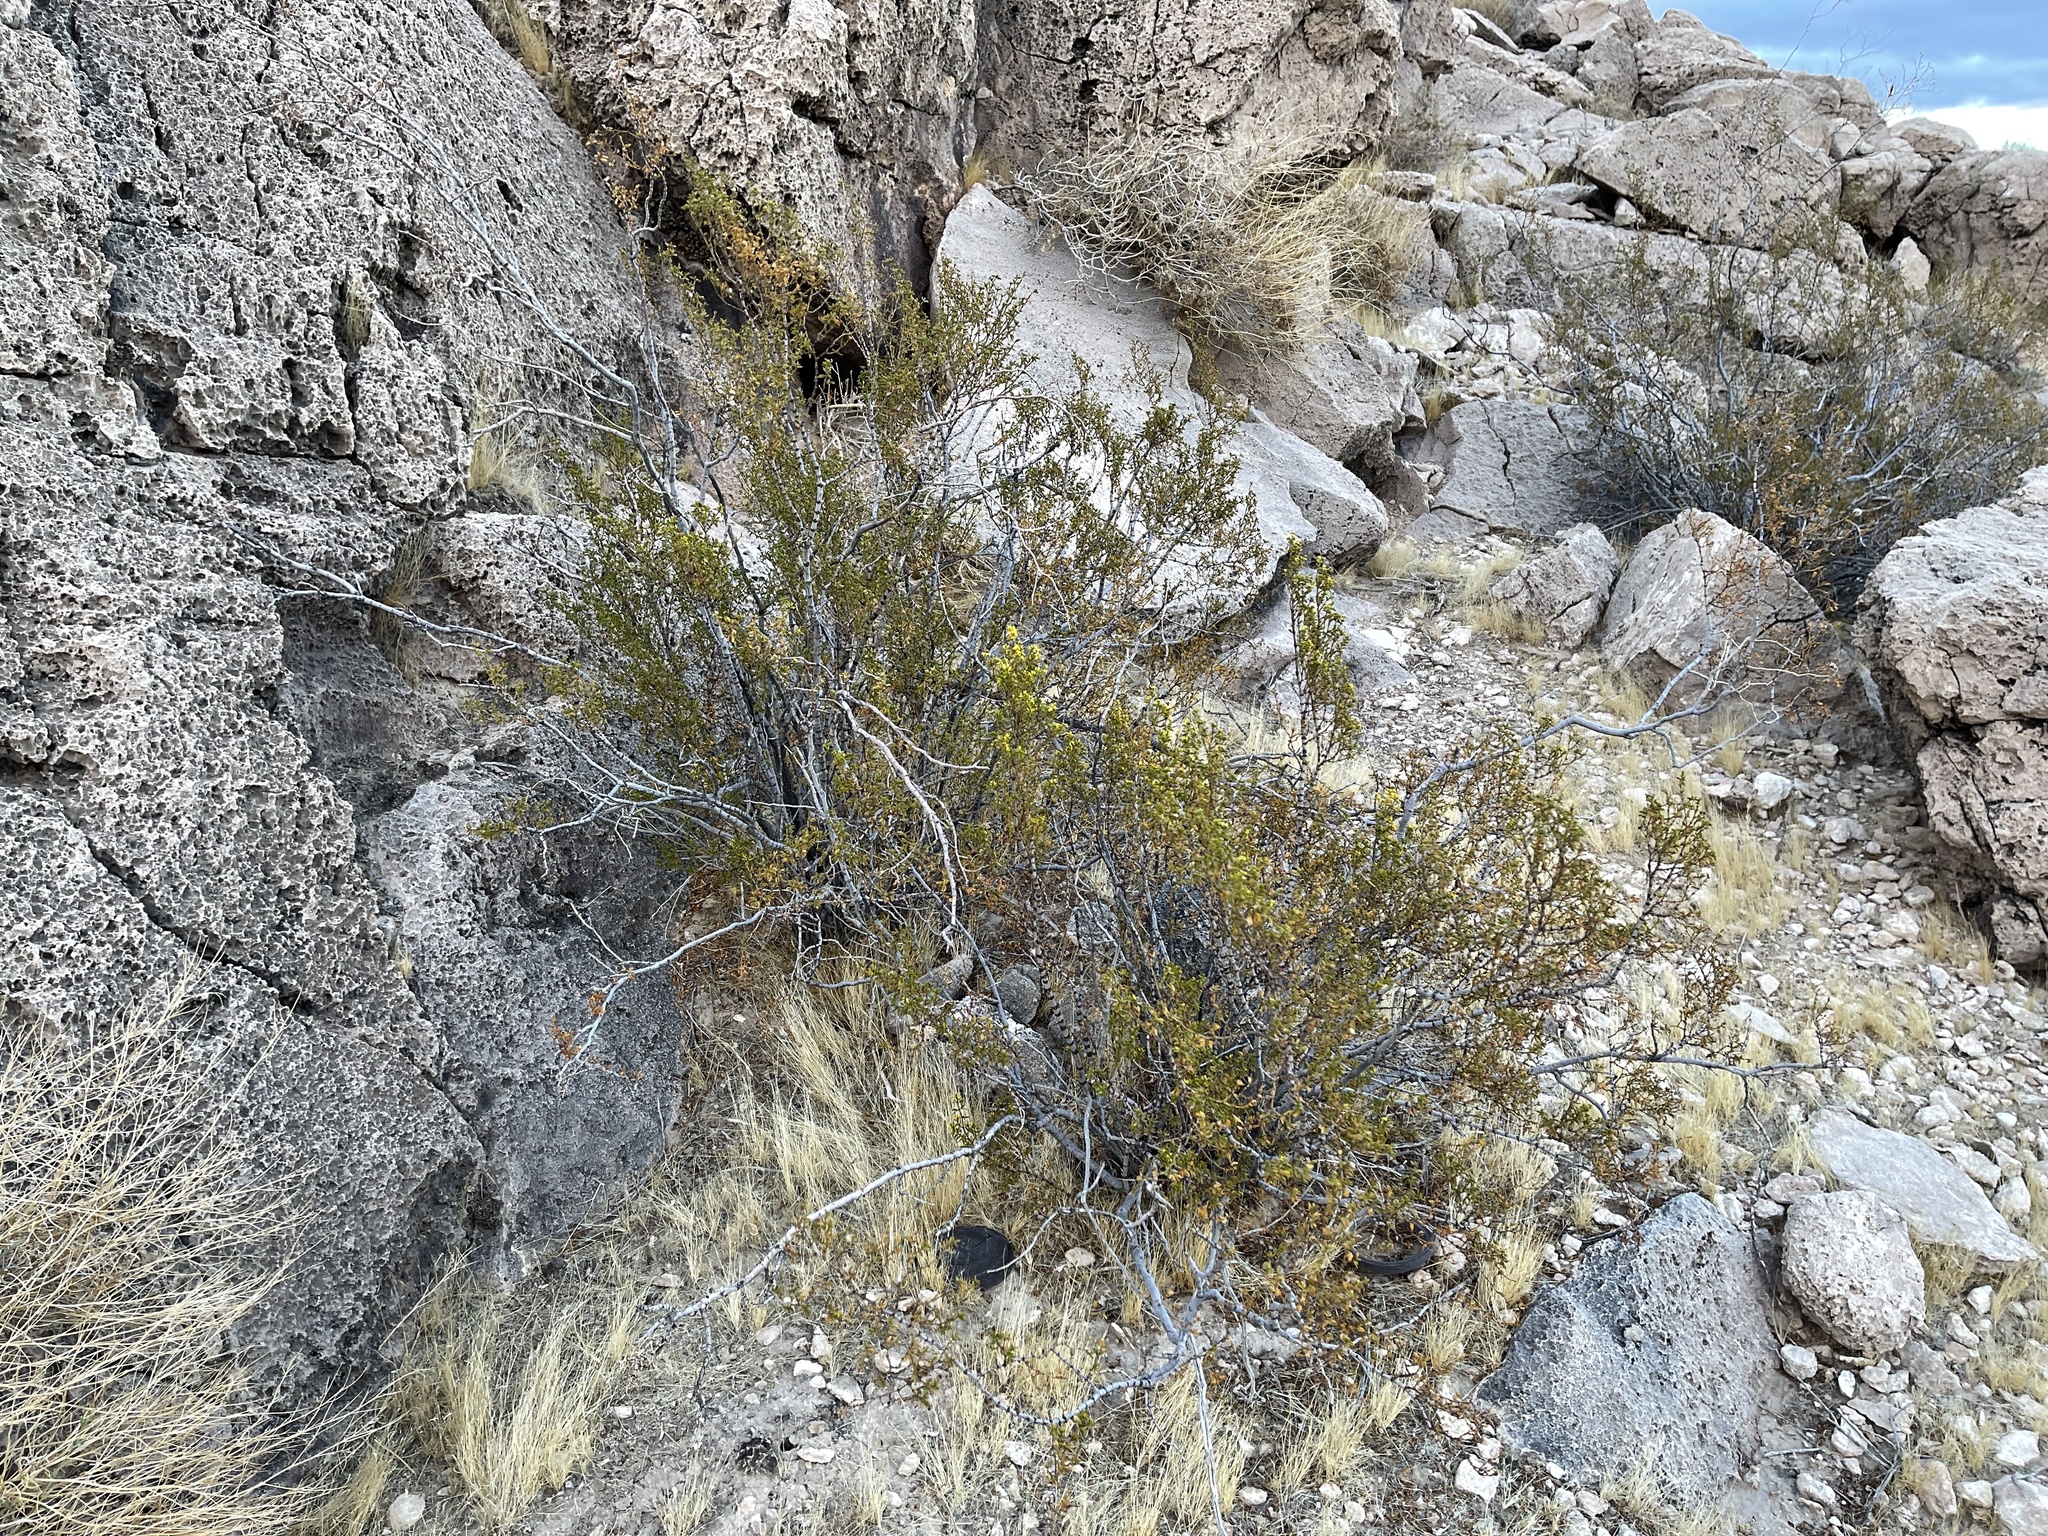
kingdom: Plantae
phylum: Tracheophyta
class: Magnoliopsida
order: Zygophyllales
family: Zygophyllaceae
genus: Larrea
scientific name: Larrea tridentata
